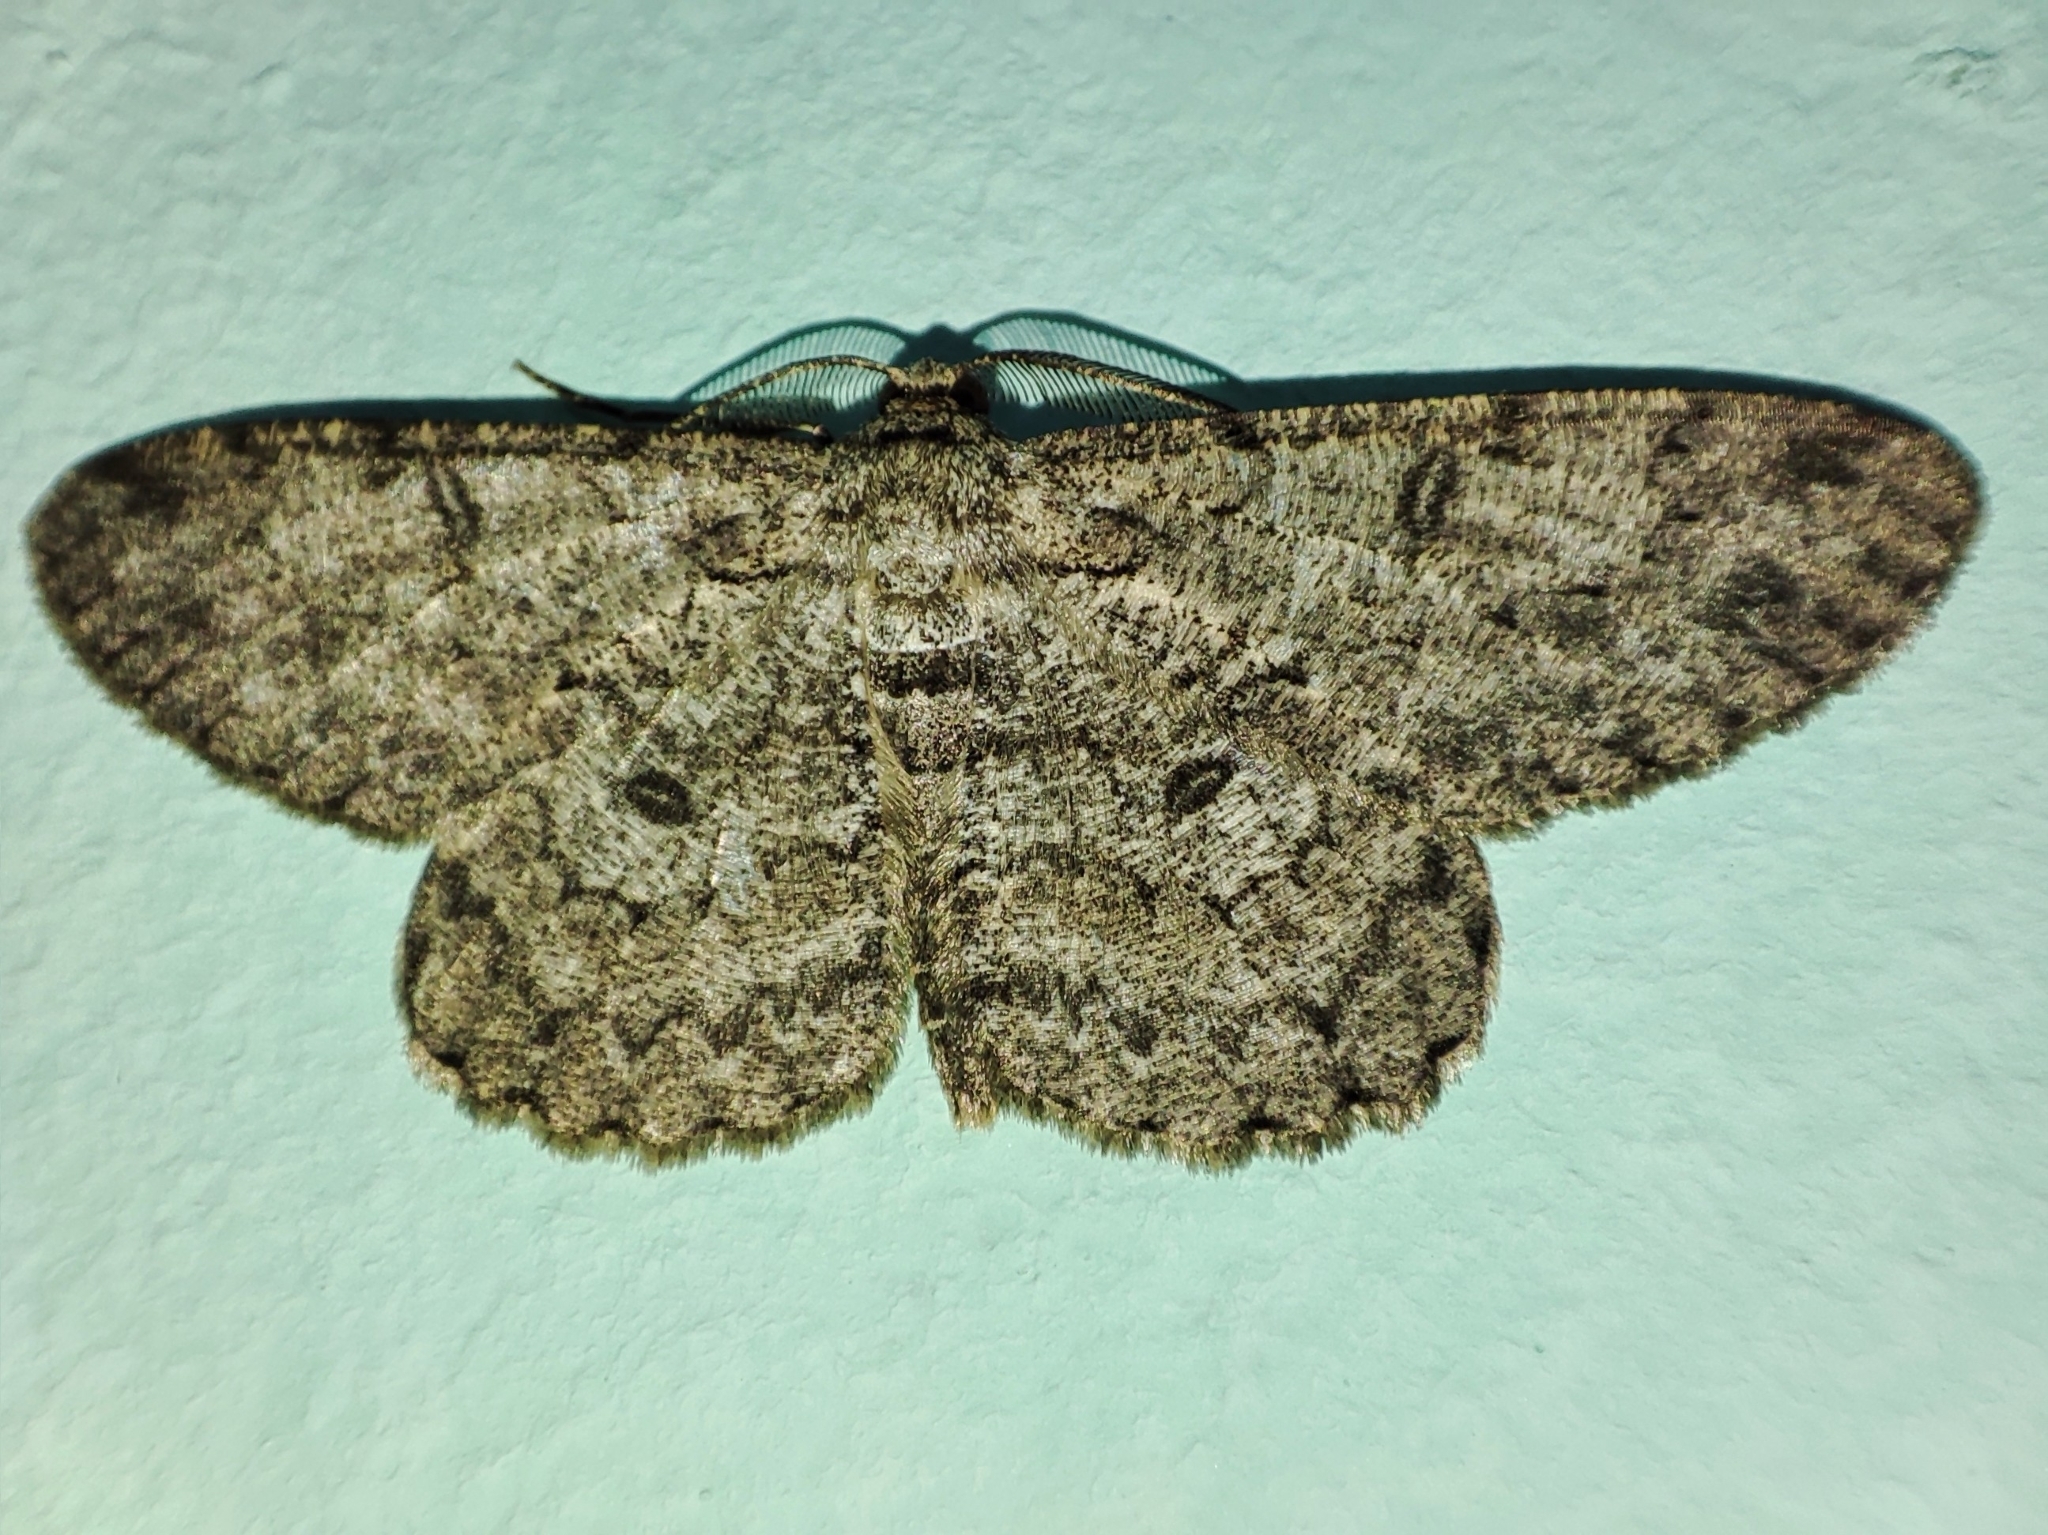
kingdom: Animalia
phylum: Arthropoda
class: Insecta
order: Lepidoptera
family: Geometridae
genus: Hypomecis
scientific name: Hypomecis punctinalis
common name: Pale oak beauty
